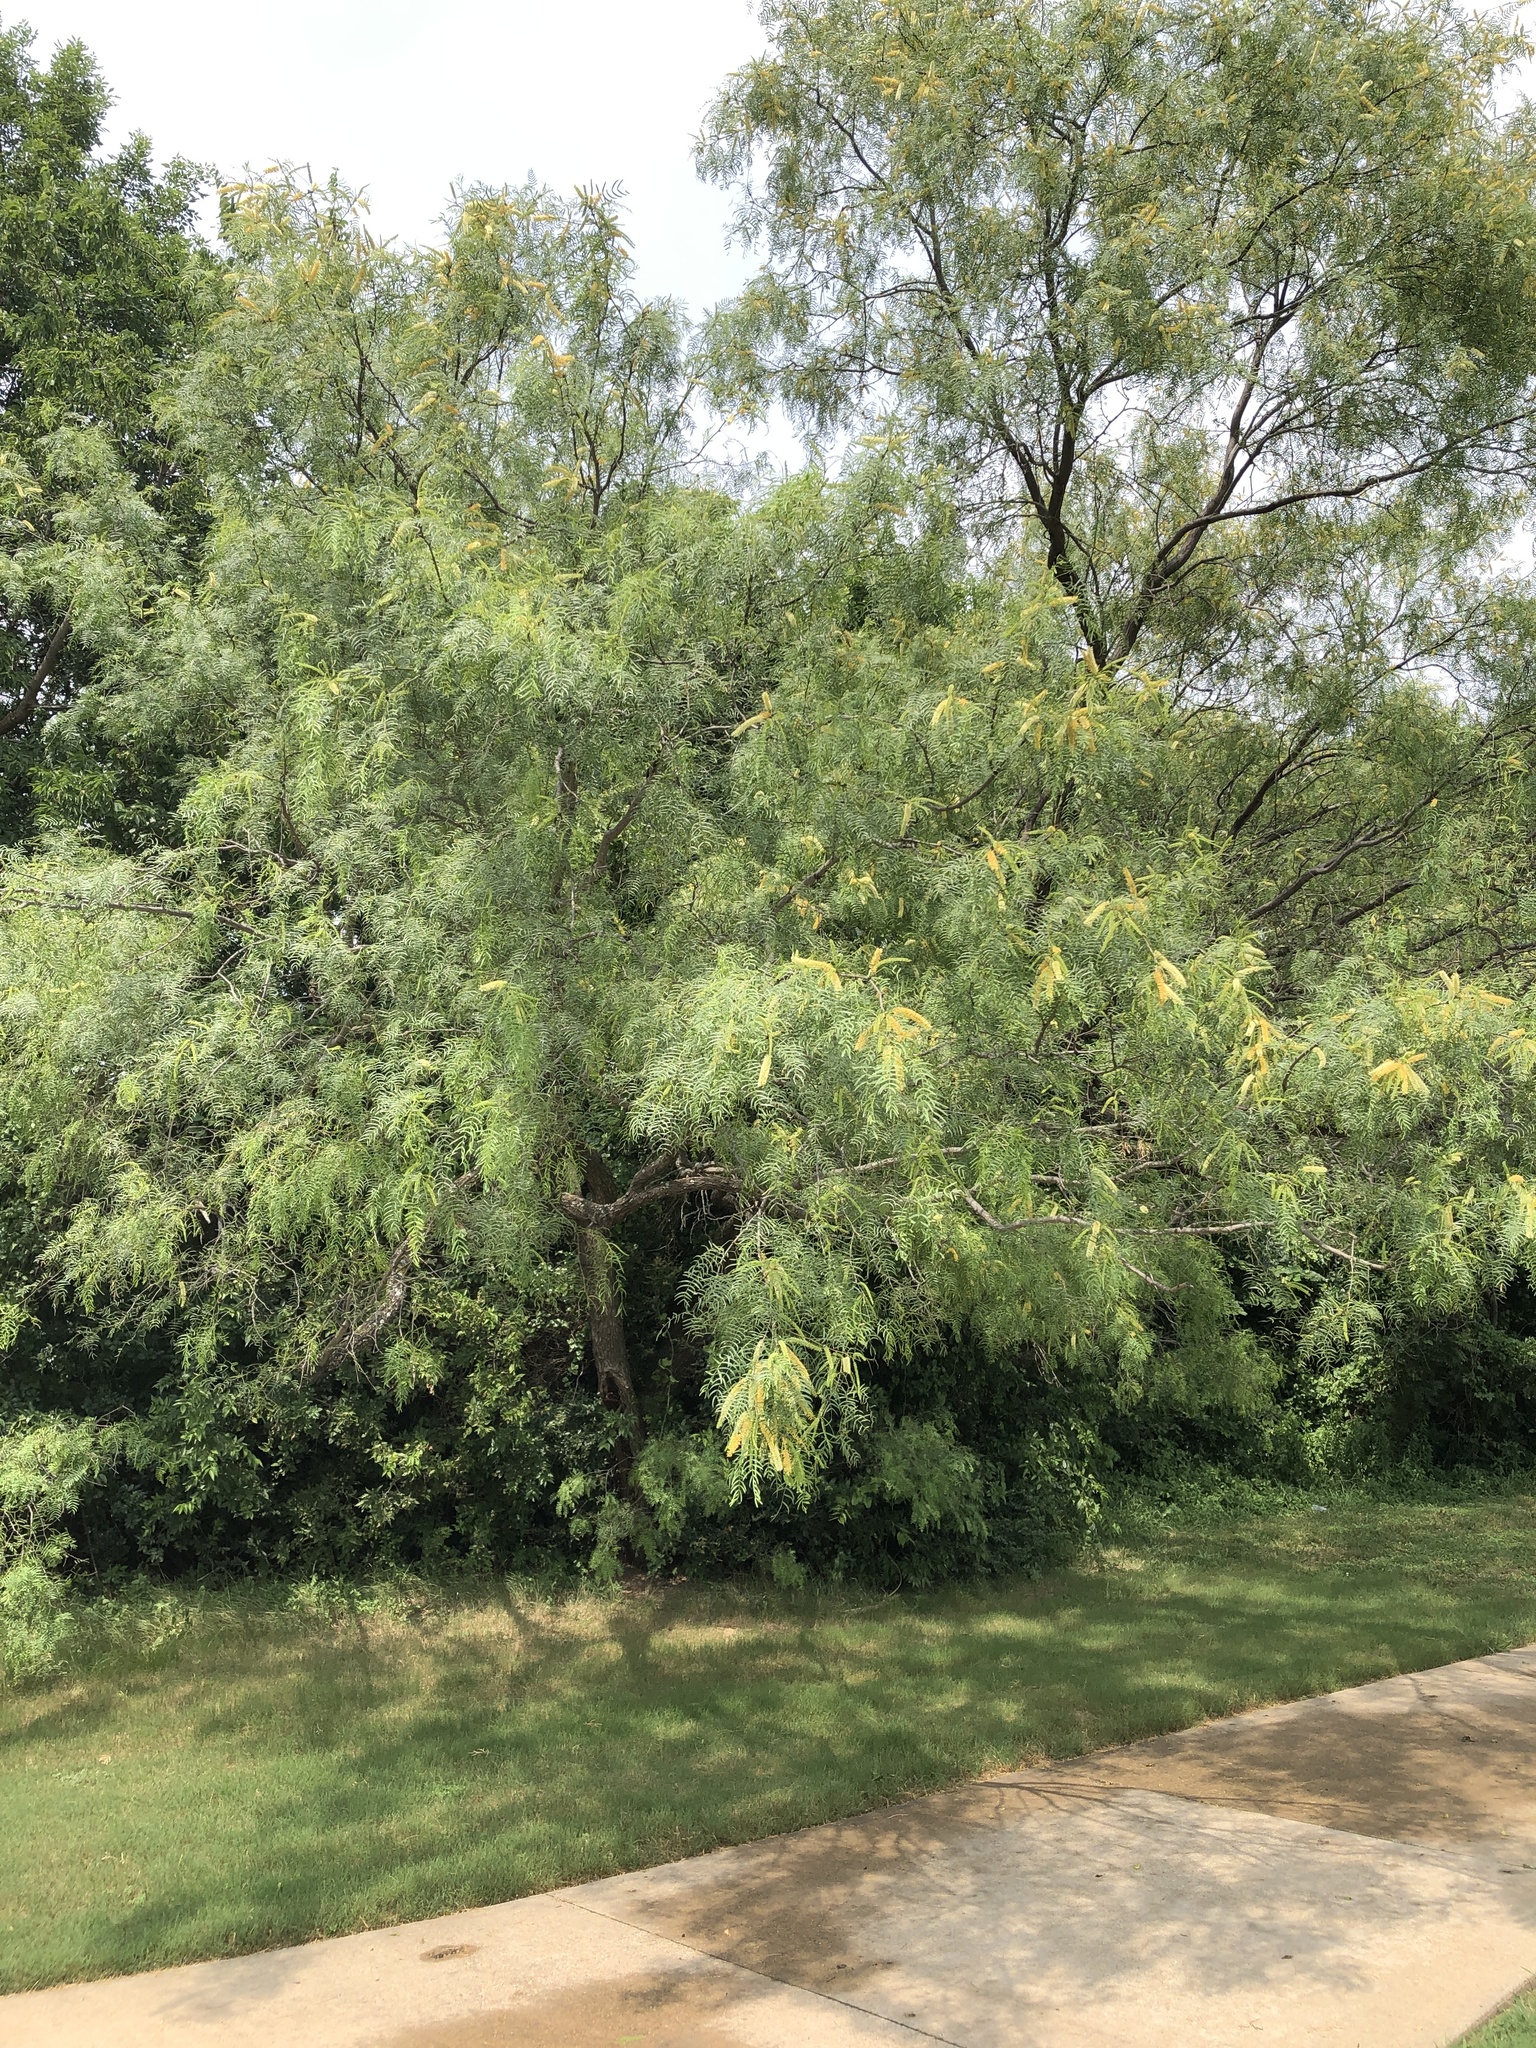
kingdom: Plantae
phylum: Tracheophyta
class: Magnoliopsida
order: Fabales
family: Fabaceae
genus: Prosopis
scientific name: Prosopis glandulosa
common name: Honey mesquite
